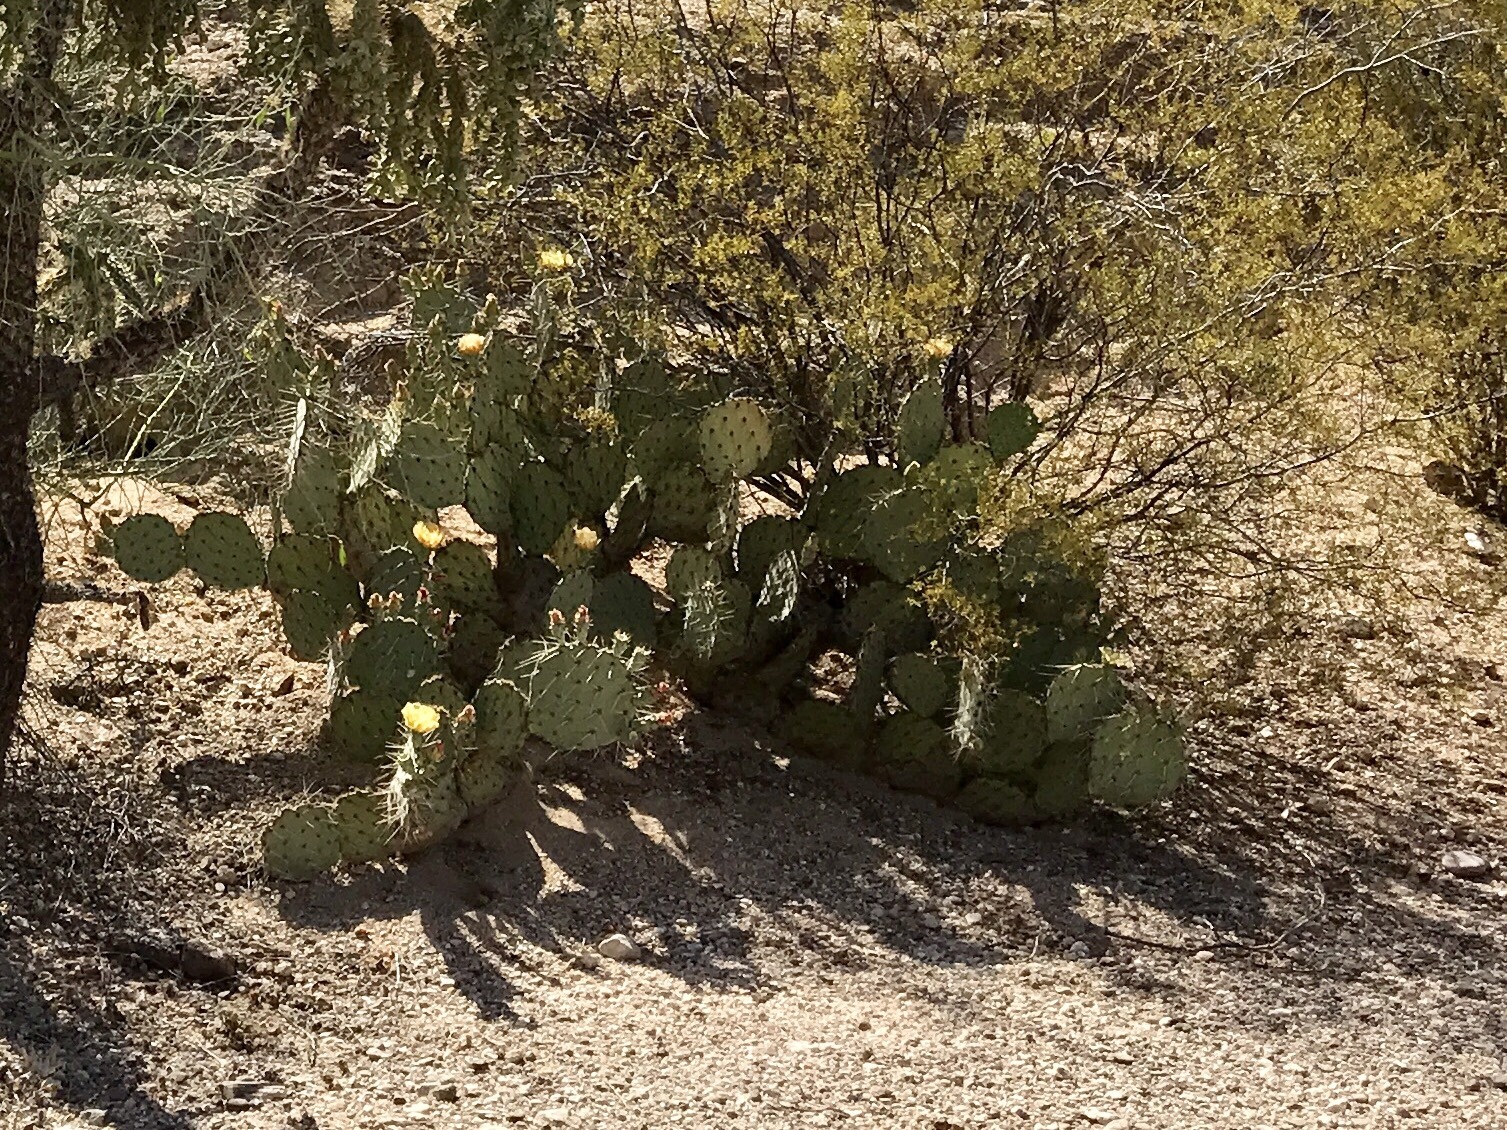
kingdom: Plantae
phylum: Tracheophyta
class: Magnoliopsida
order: Caryophyllales
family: Cactaceae
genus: Opuntia
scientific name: Opuntia engelmannii
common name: Cactus-apple
